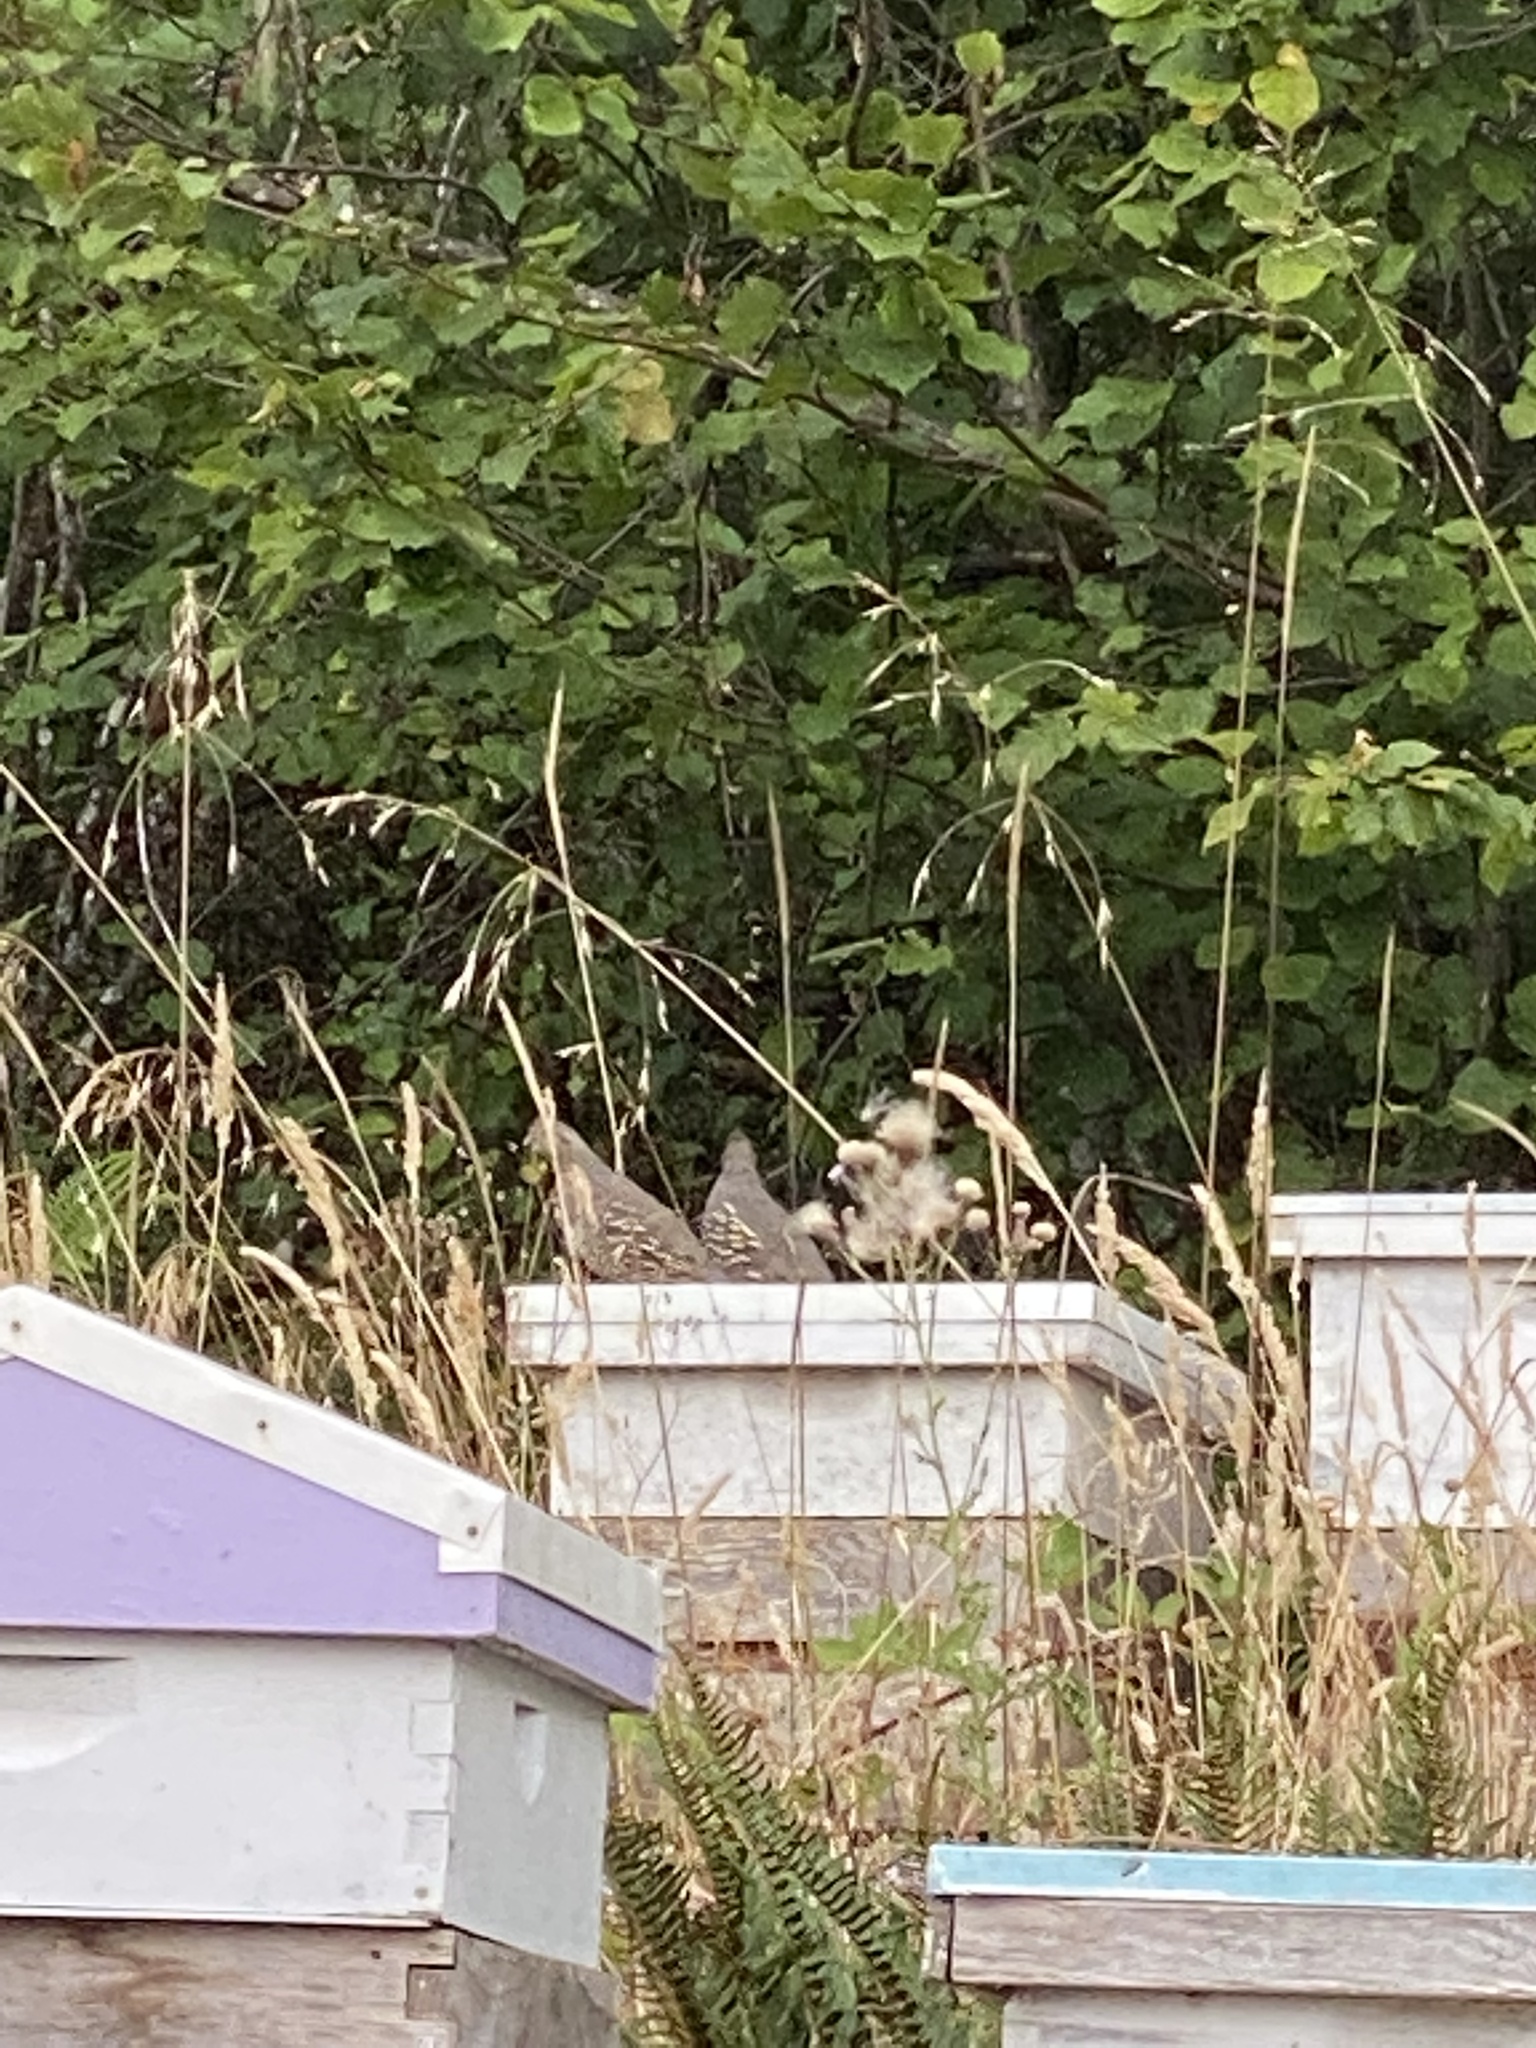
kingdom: Animalia
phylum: Chordata
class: Aves
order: Galliformes
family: Odontophoridae
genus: Callipepla
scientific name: Callipepla californica
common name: California quail
